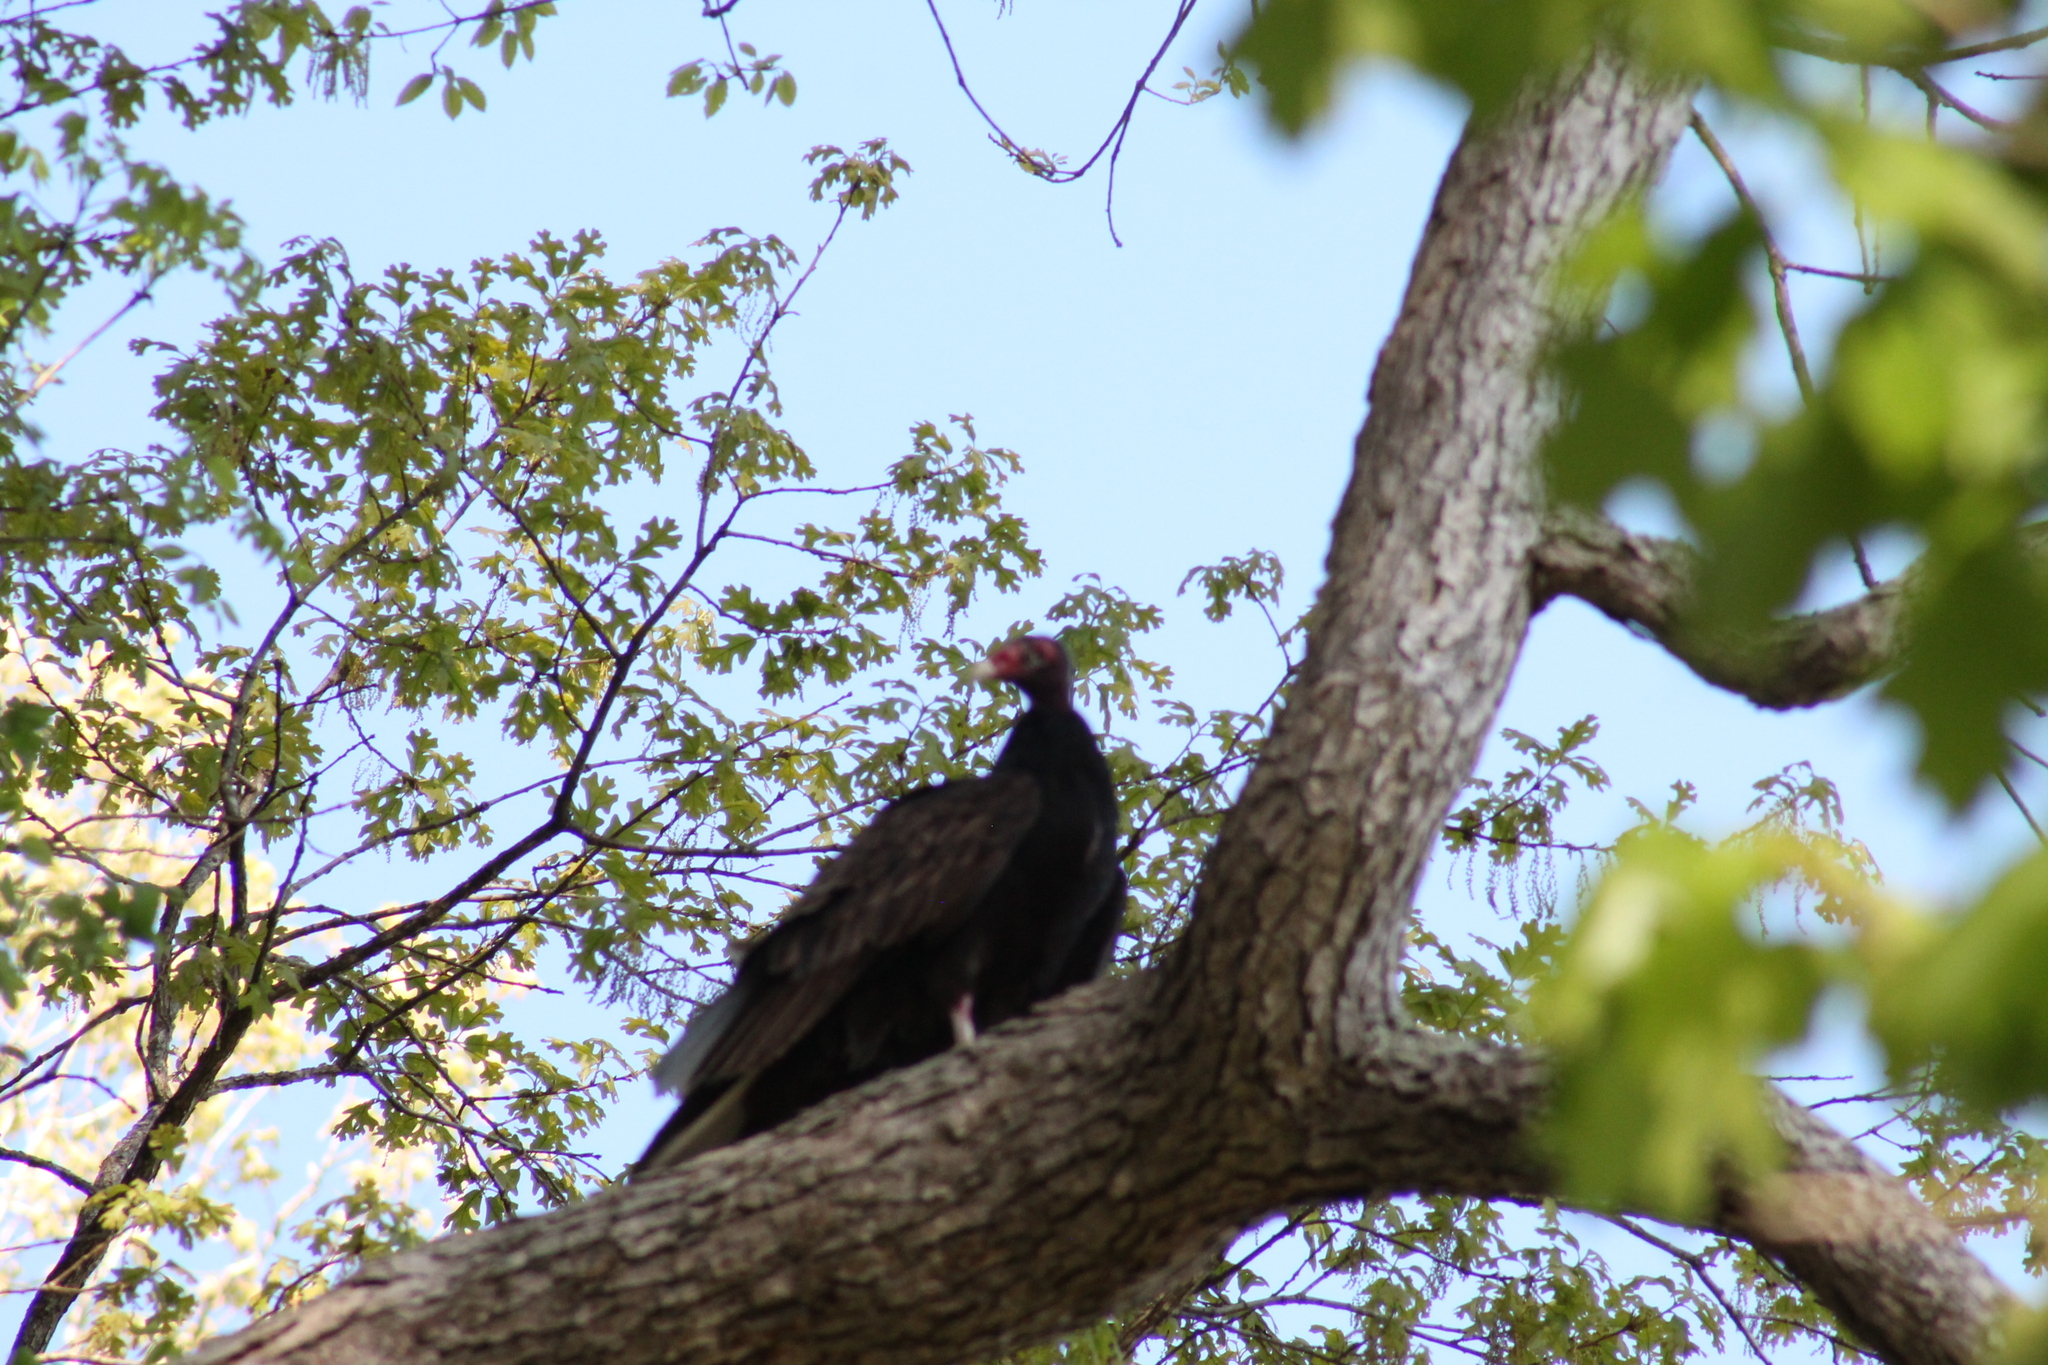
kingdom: Animalia
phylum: Chordata
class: Aves
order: Accipitriformes
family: Cathartidae
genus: Cathartes
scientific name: Cathartes aura
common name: Turkey vulture
